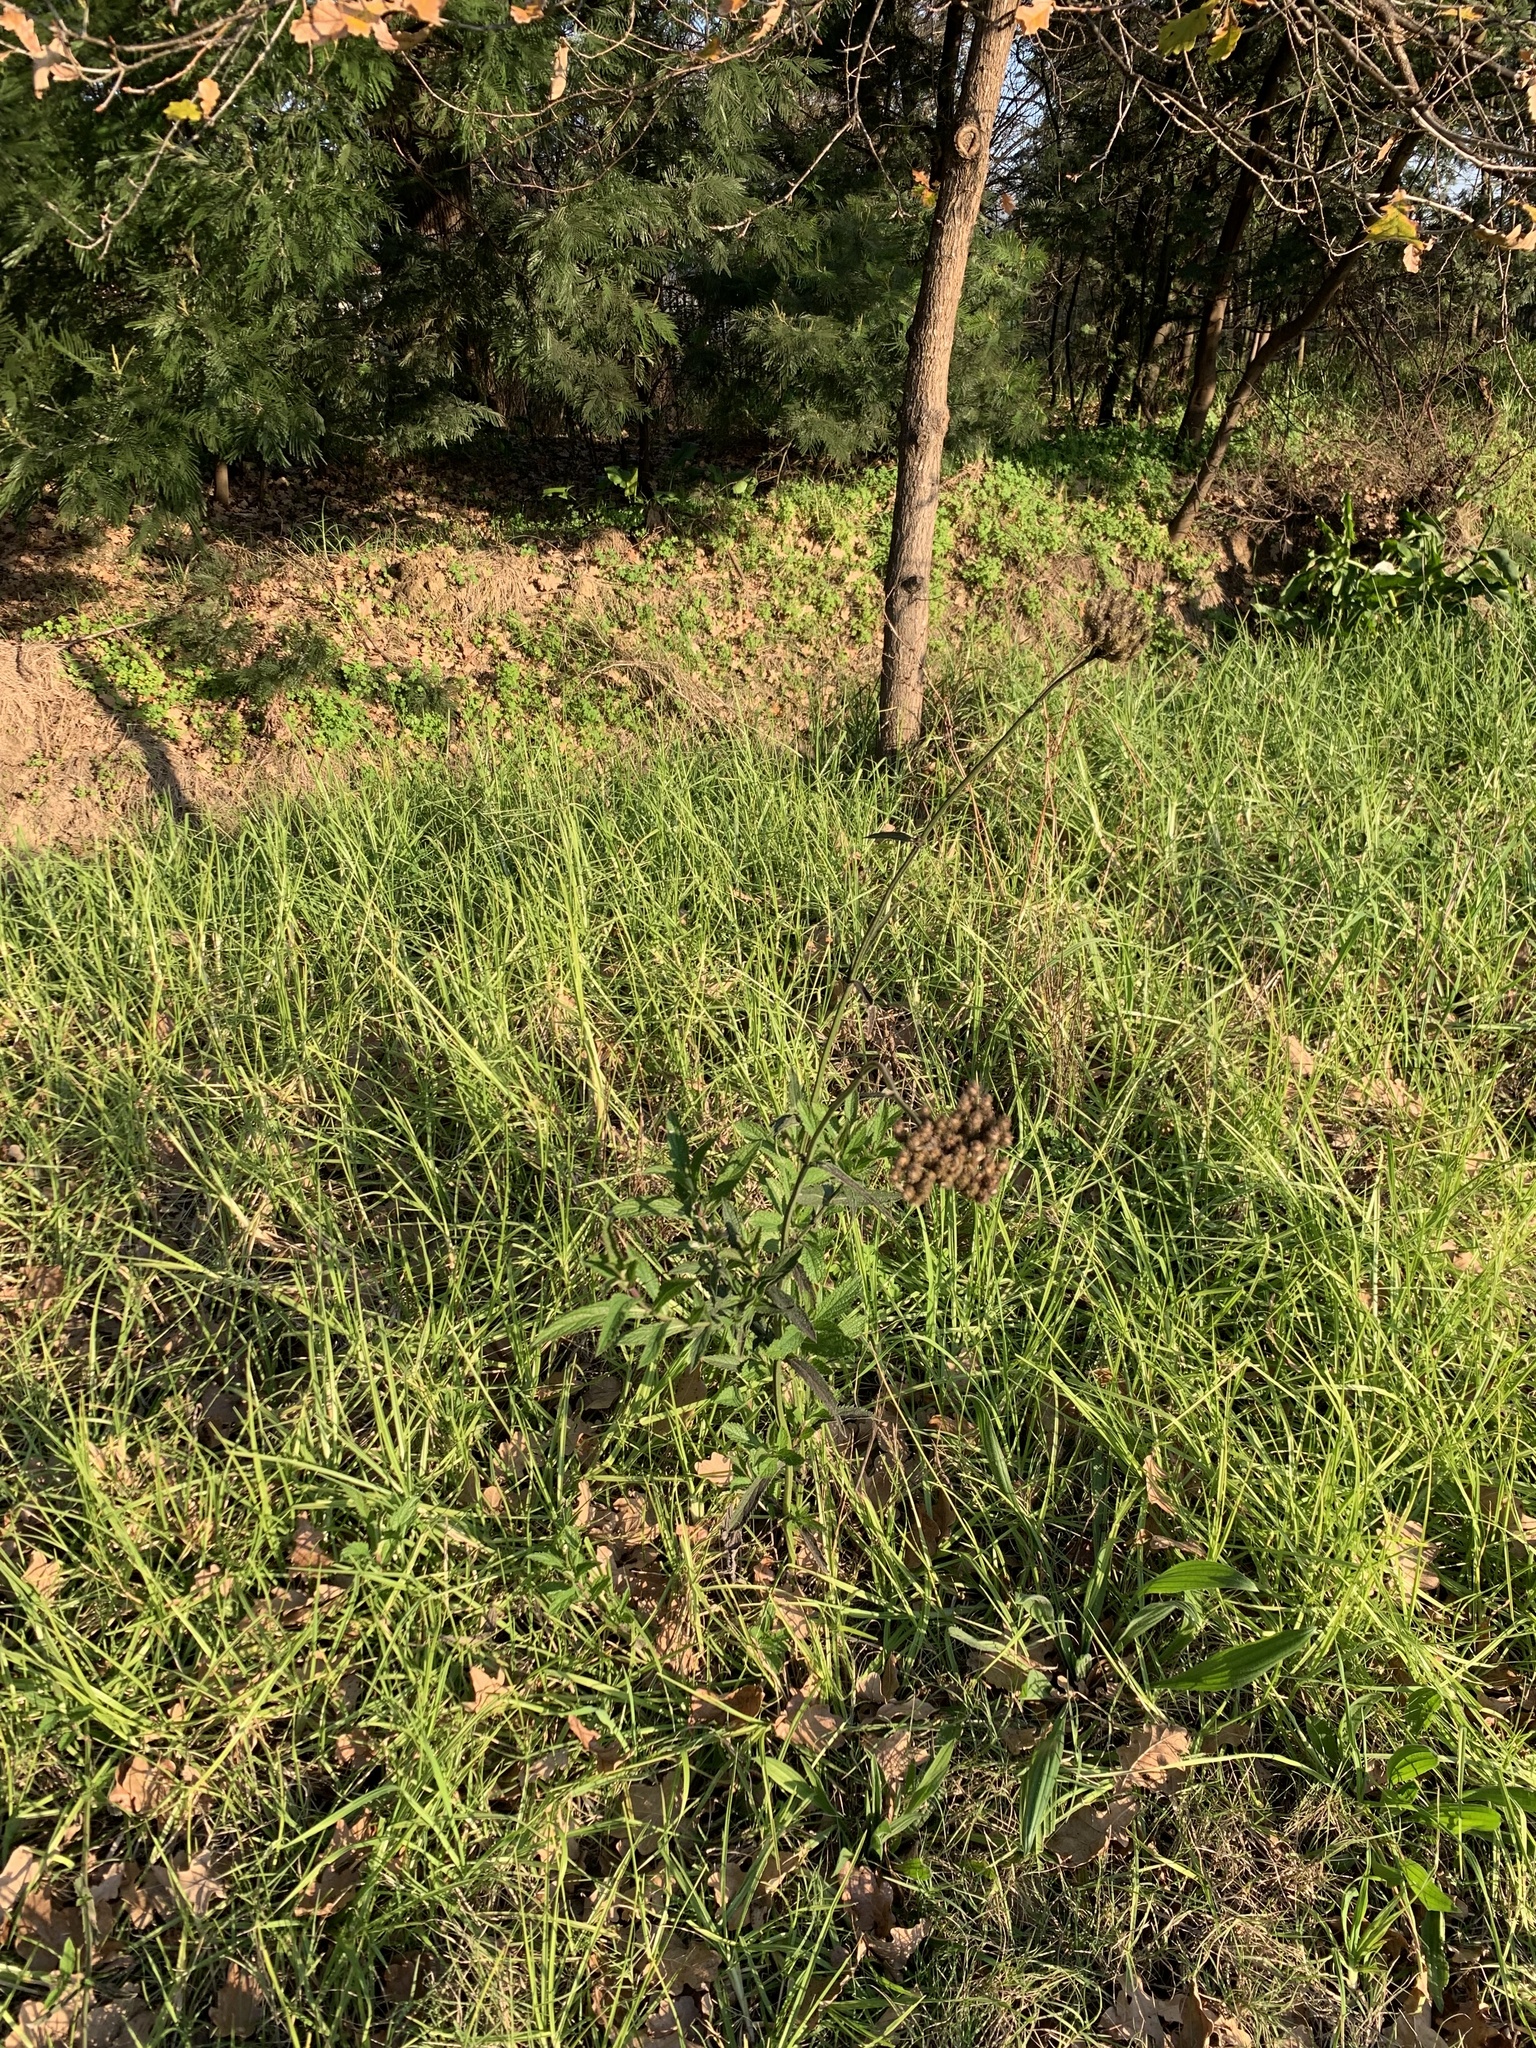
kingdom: Plantae
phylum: Tracheophyta
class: Magnoliopsida
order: Lamiales
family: Verbenaceae
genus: Verbena
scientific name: Verbena bonariensis
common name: Purpletop vervain
